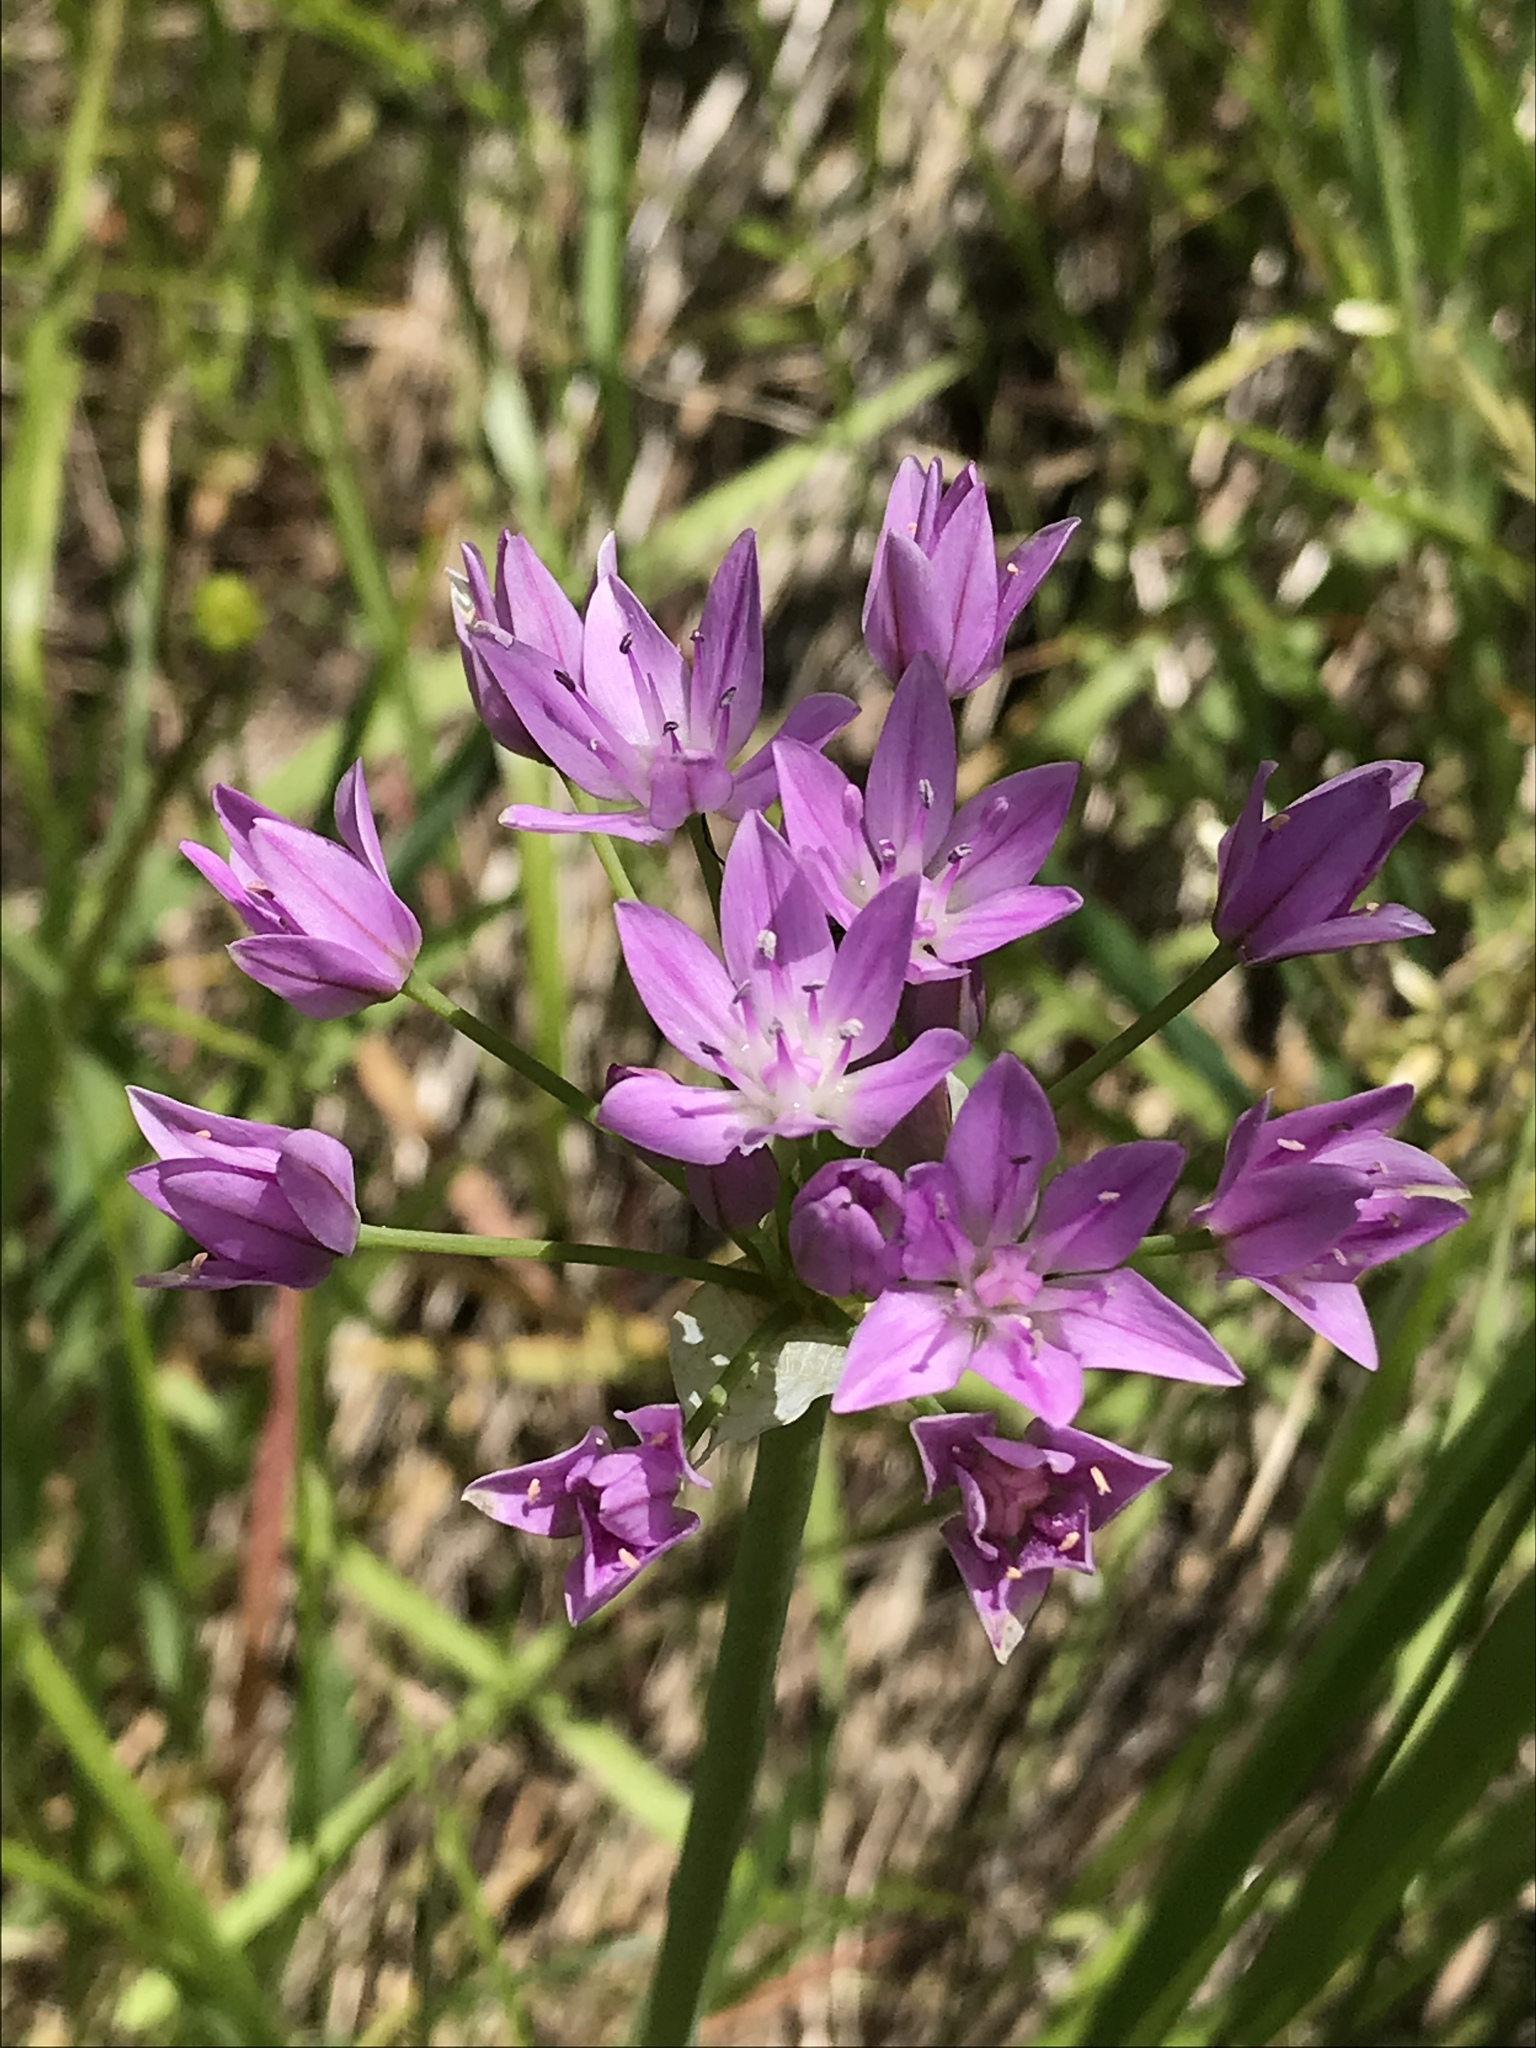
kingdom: Plantae
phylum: Tracheophyta
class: Liliopsida
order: Asparagales
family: Amaryllidaceae
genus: Allium
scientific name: Allium unifolium
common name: American garlic
